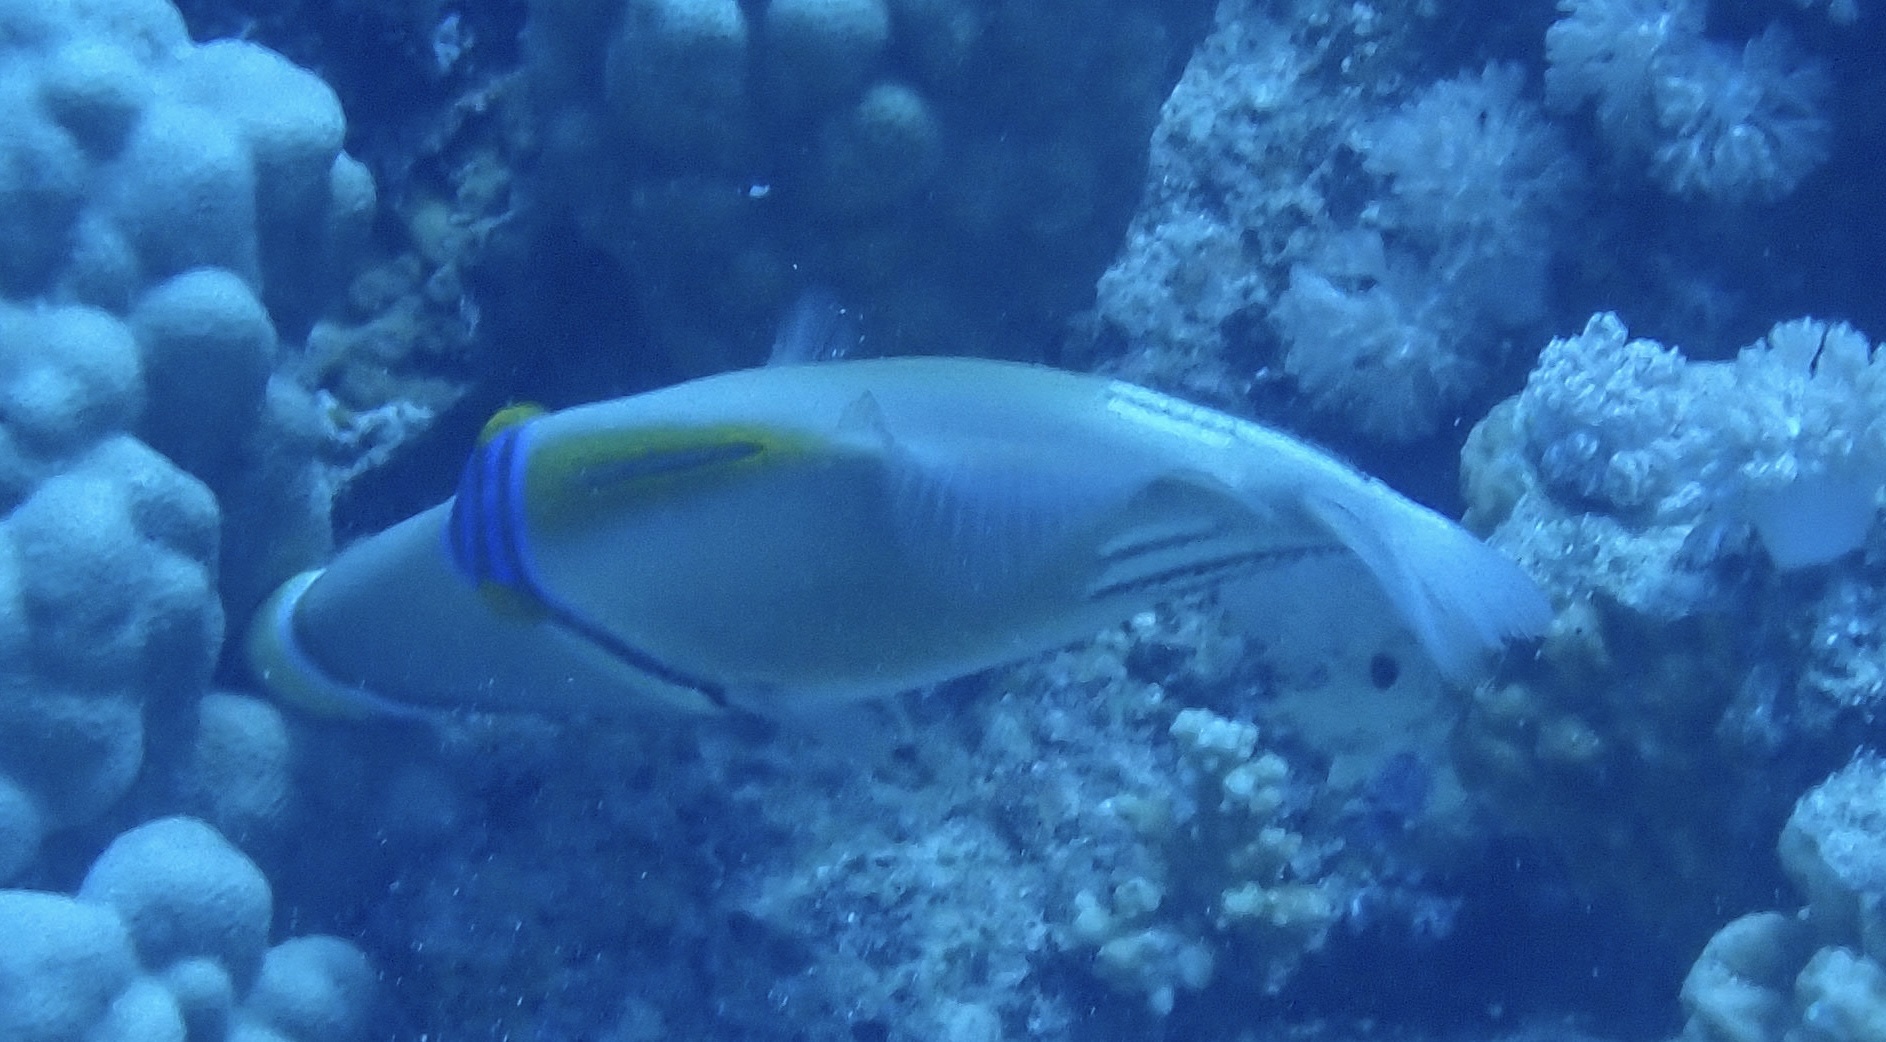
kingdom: Animalia
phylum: Chordata
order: Tetraodontiformes
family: Balistidae
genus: Rhinecanthus
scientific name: Rhinecanthus assasi
